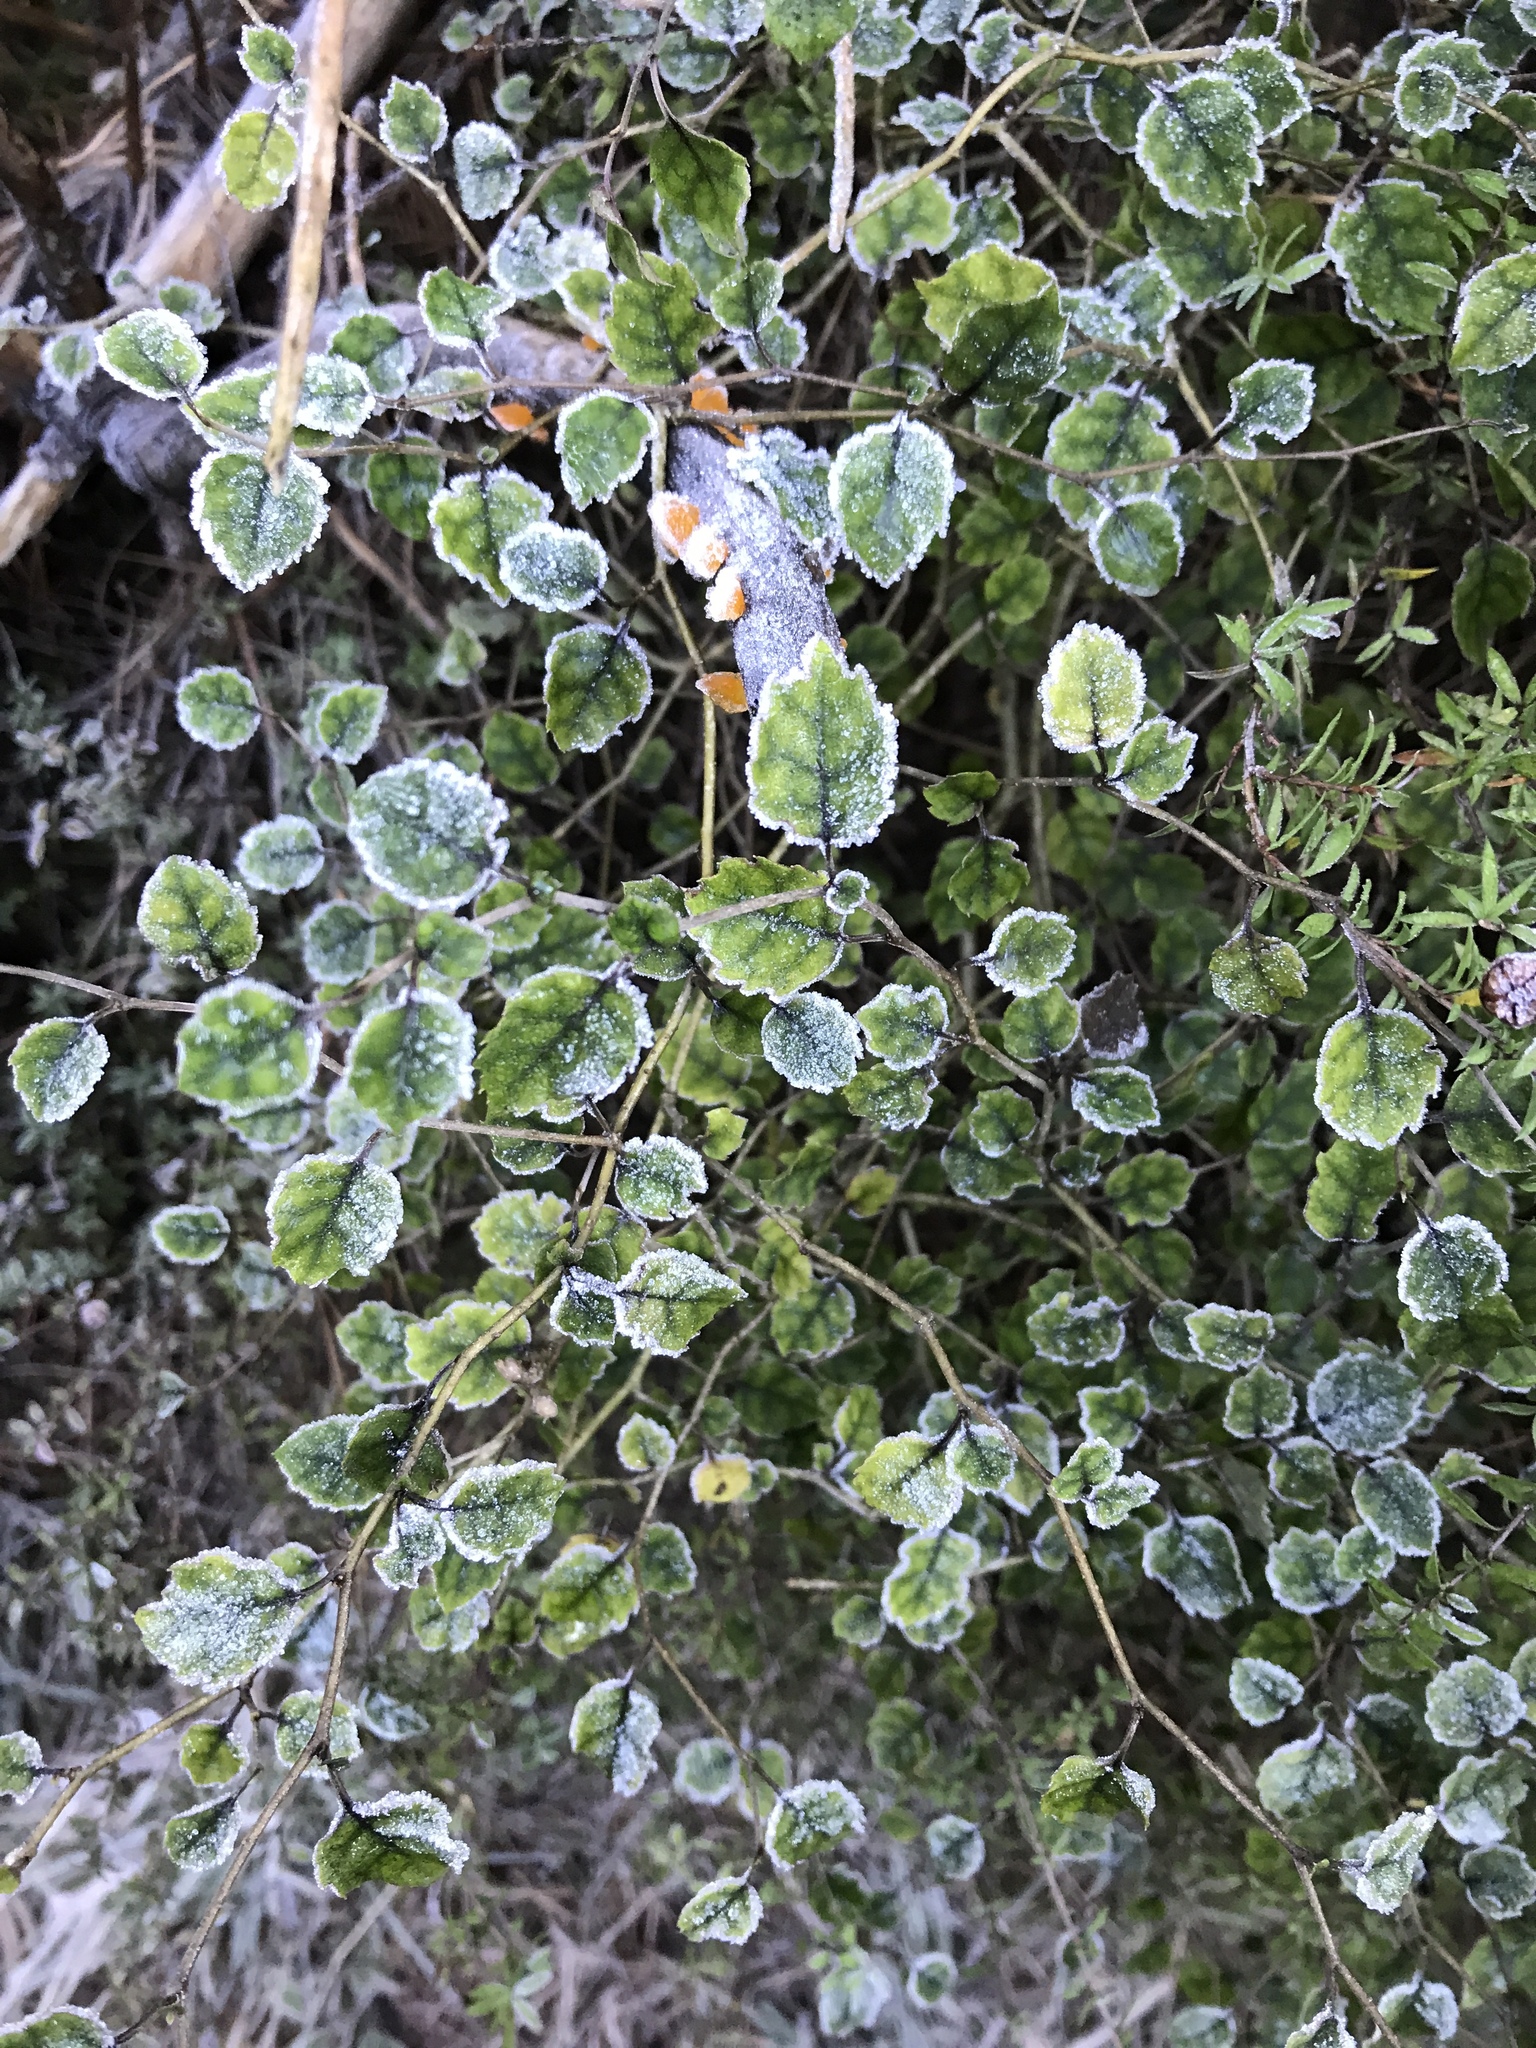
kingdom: Plantae
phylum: Tracheophyta
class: Magnoliopsida
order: Asterales
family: Rousseaceae
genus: Carpodetus
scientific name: Carpodetus serratus
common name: White mapau
